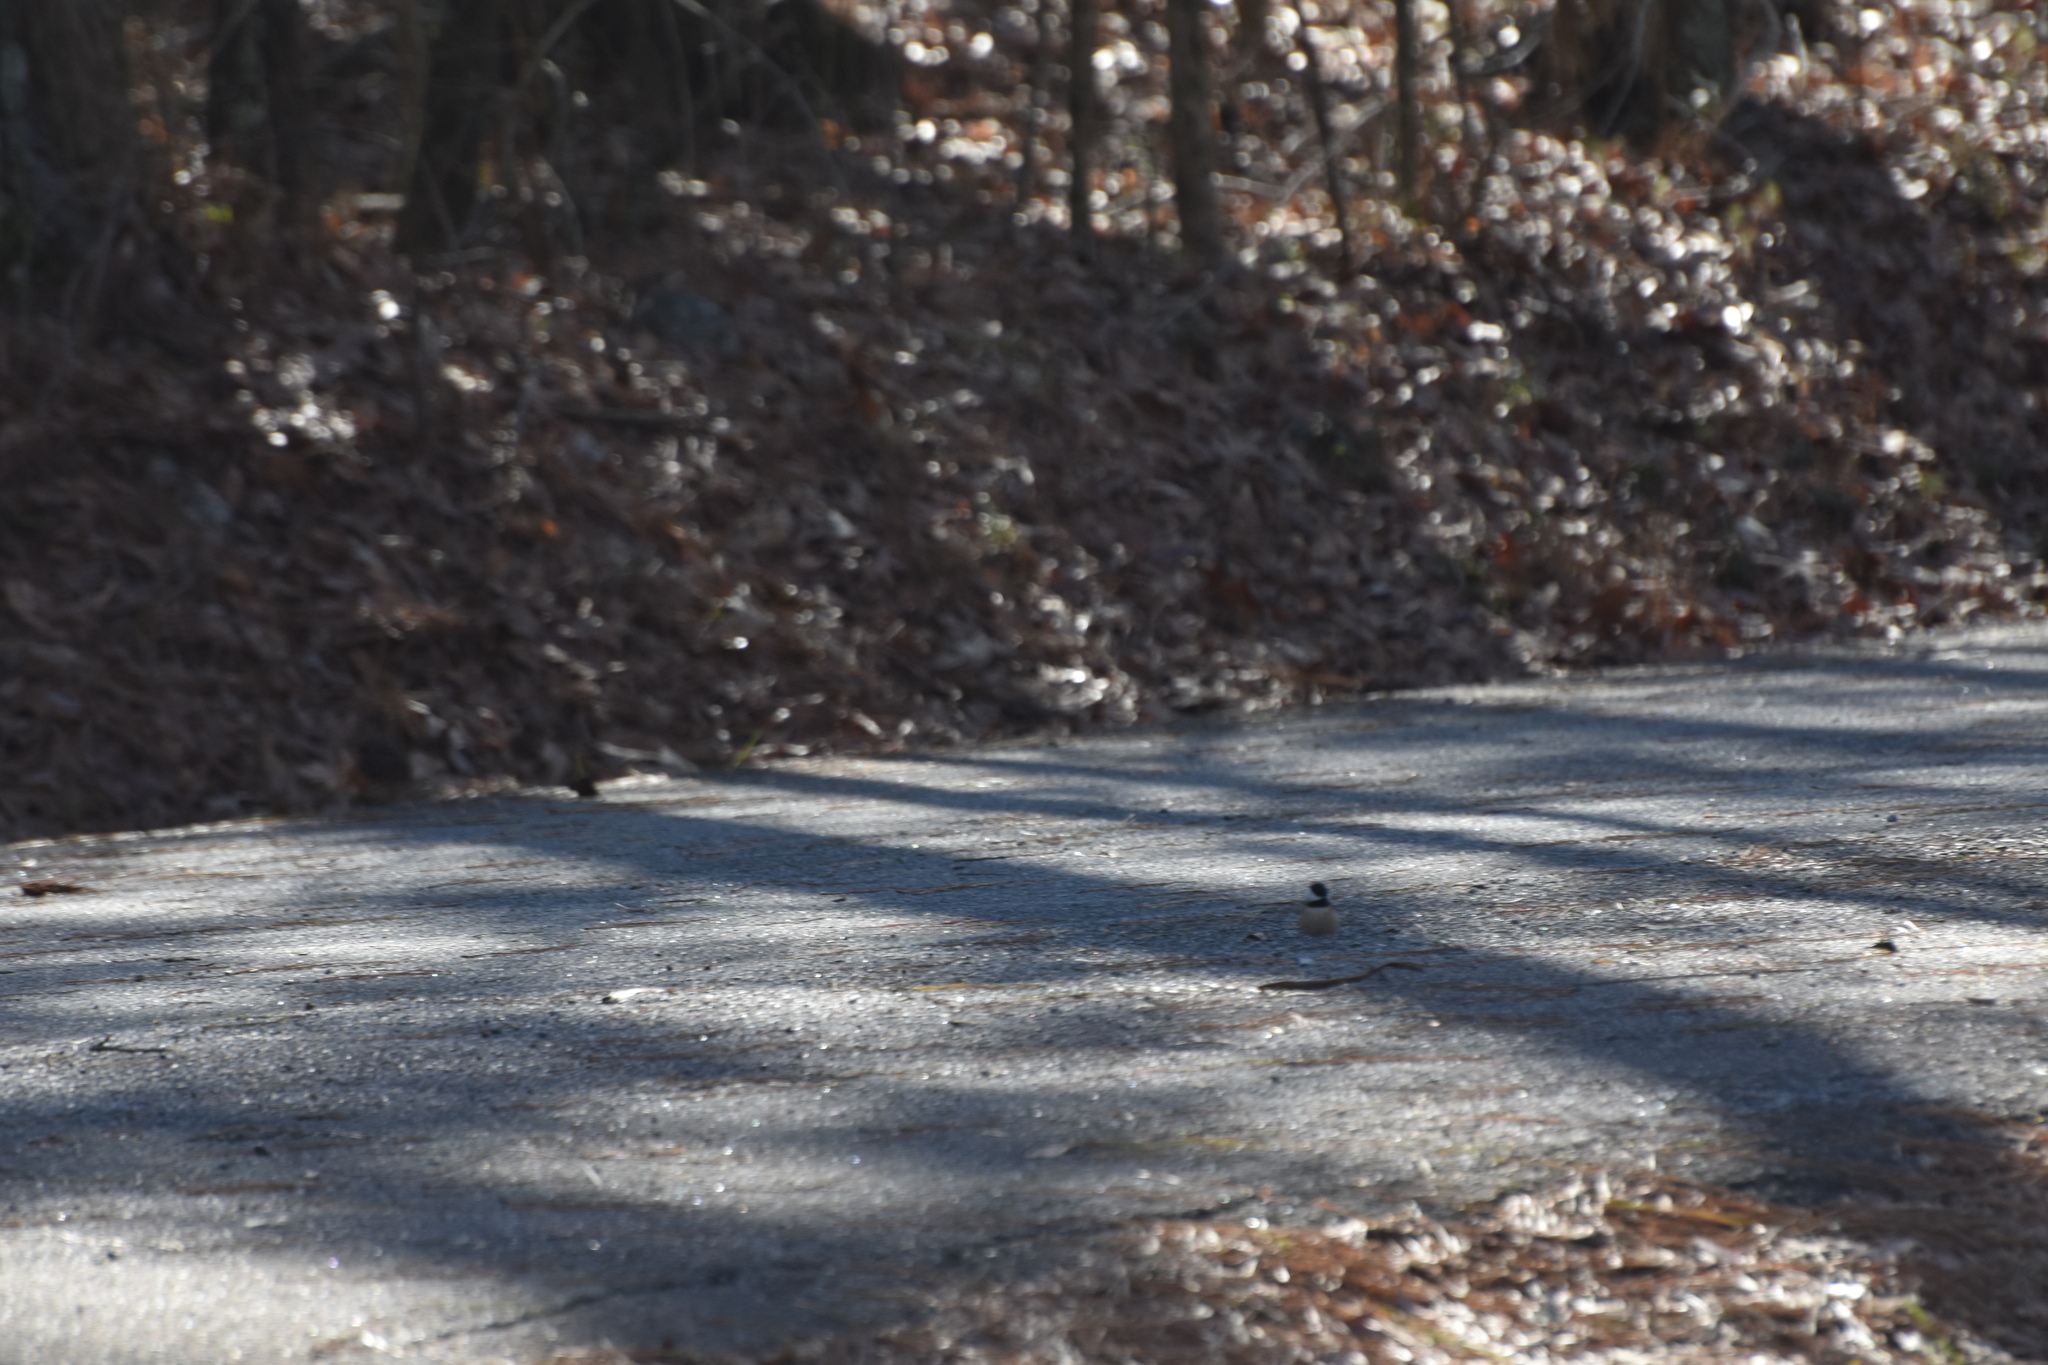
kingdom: Animalia
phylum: Chordata
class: Aves
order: Passeriformes
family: Paridae
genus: Poecile
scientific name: Poecile carolinensis
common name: Carolina chickadee
